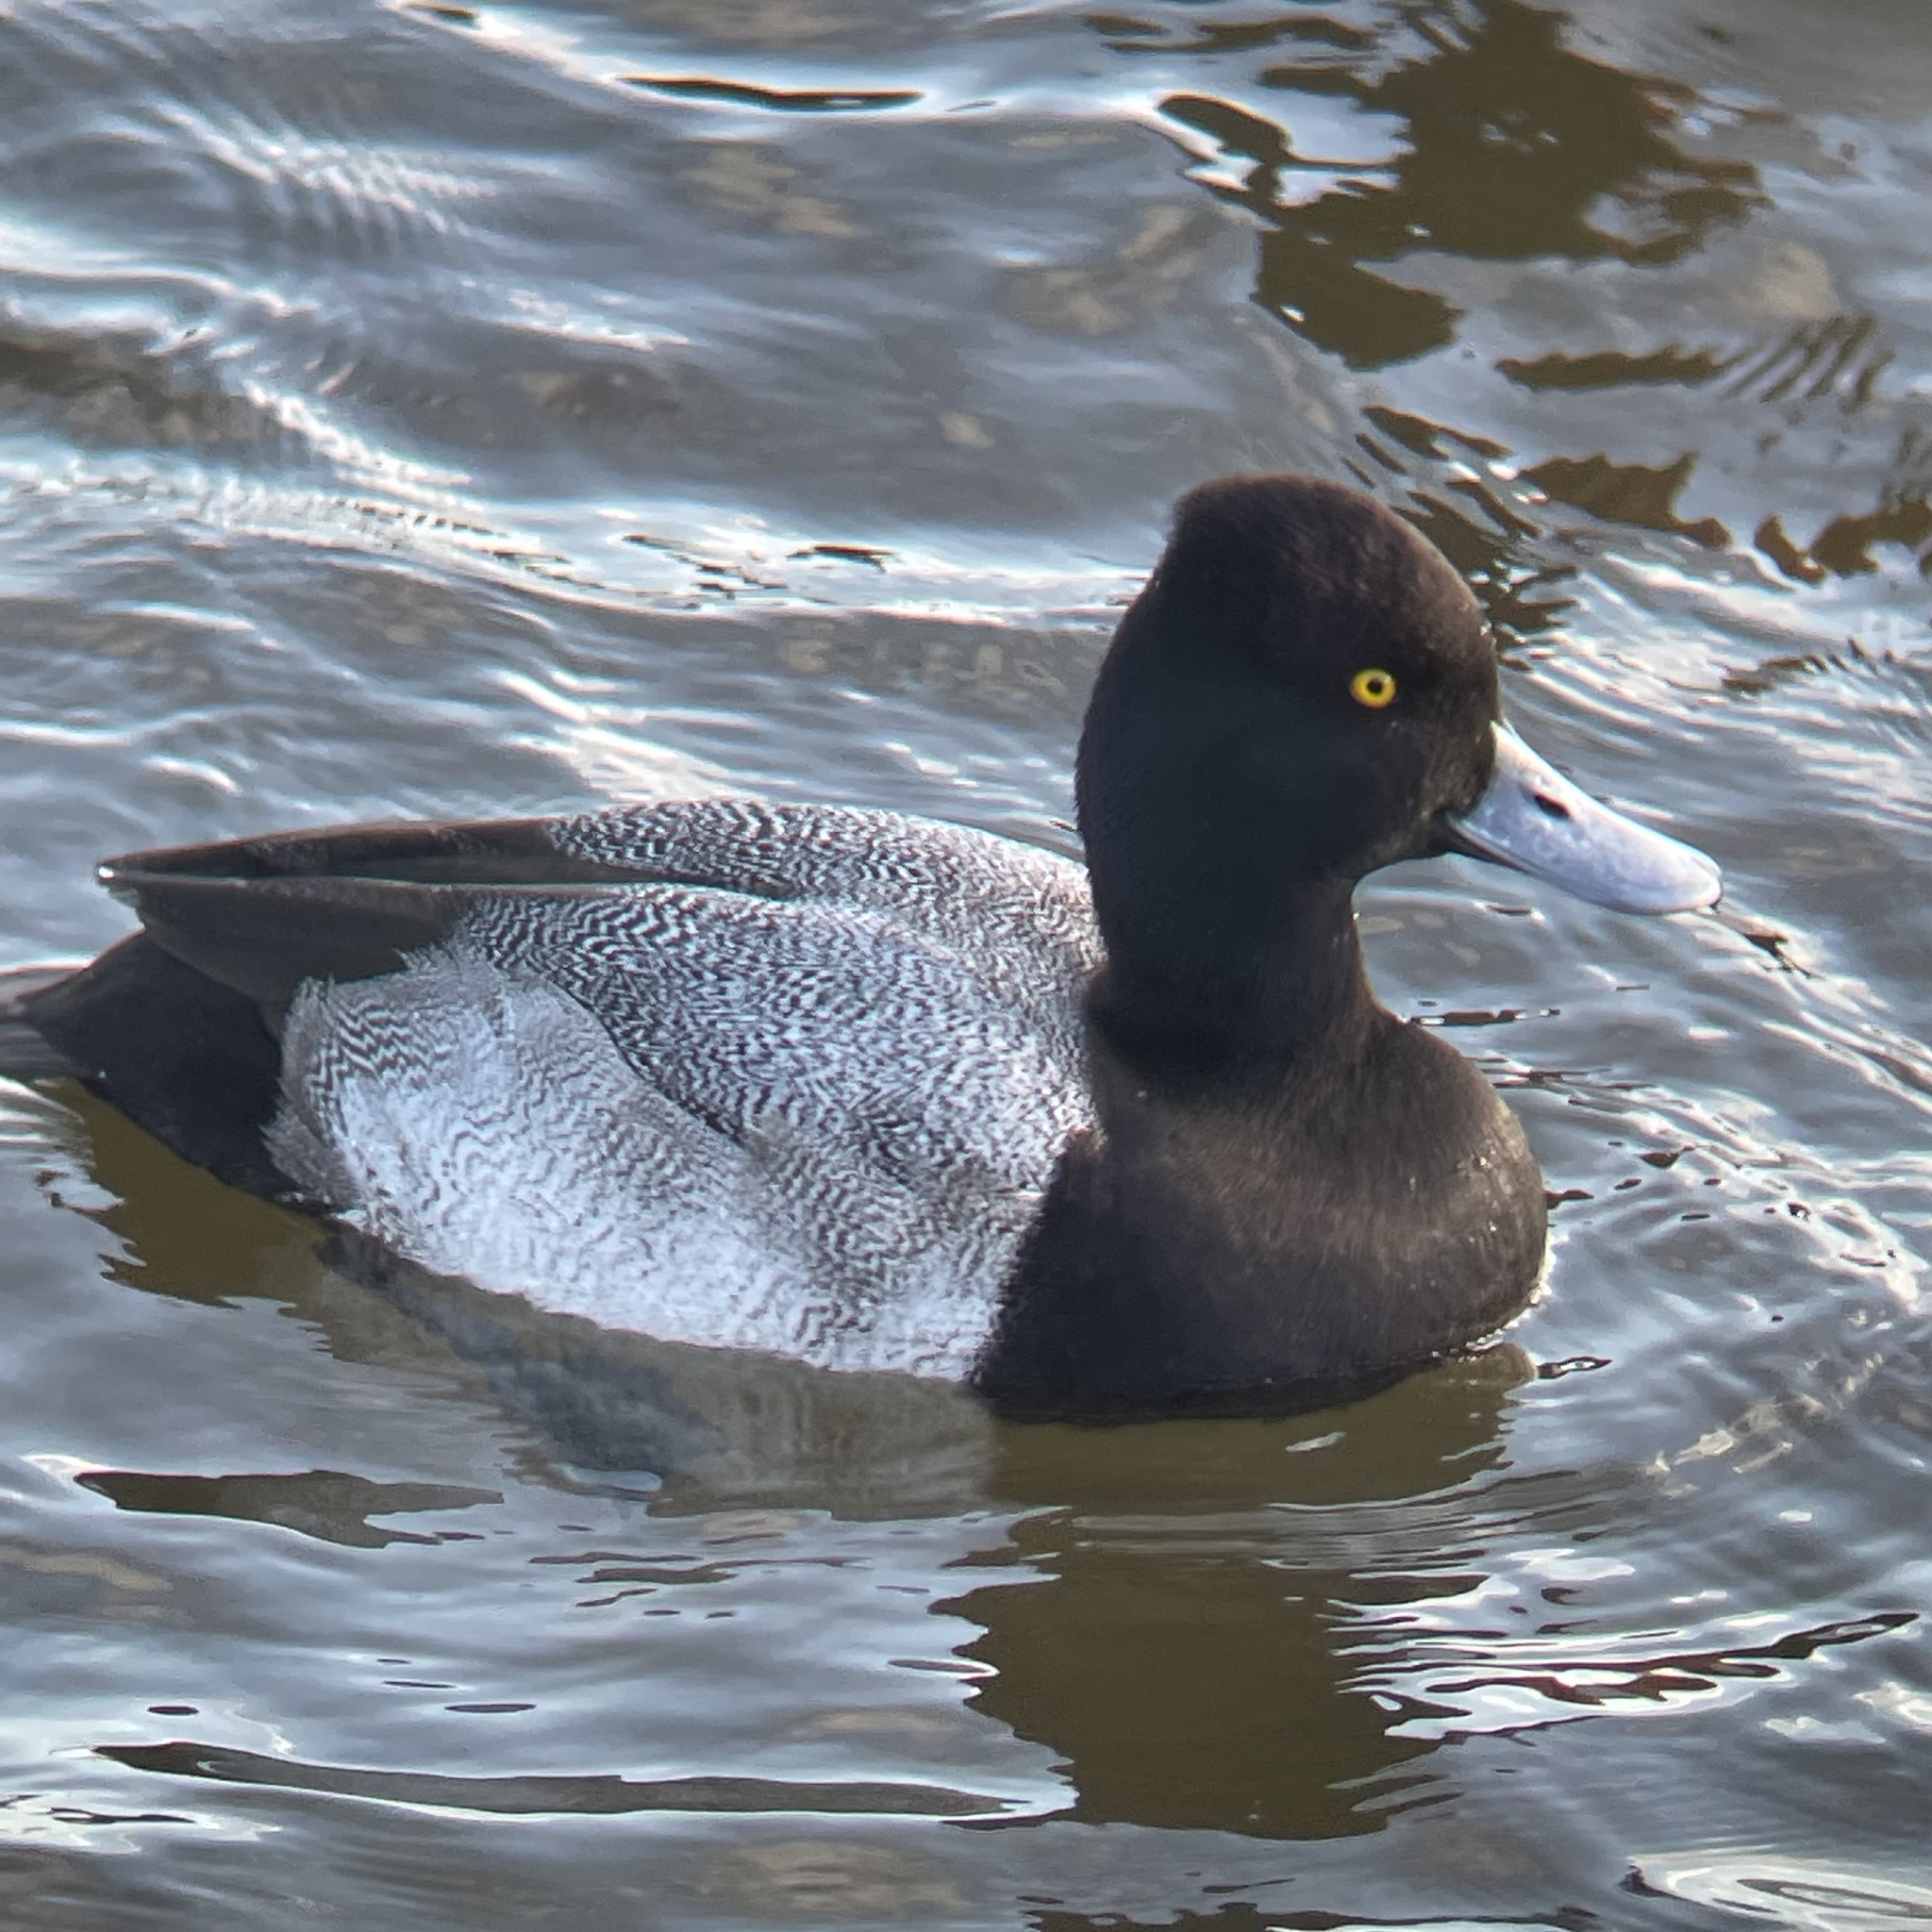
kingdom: Animalia
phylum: Chordata
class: Aves
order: Anseriformes
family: Anatidae
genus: Aythya
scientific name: Aythya affinis
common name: Lesser scaup
